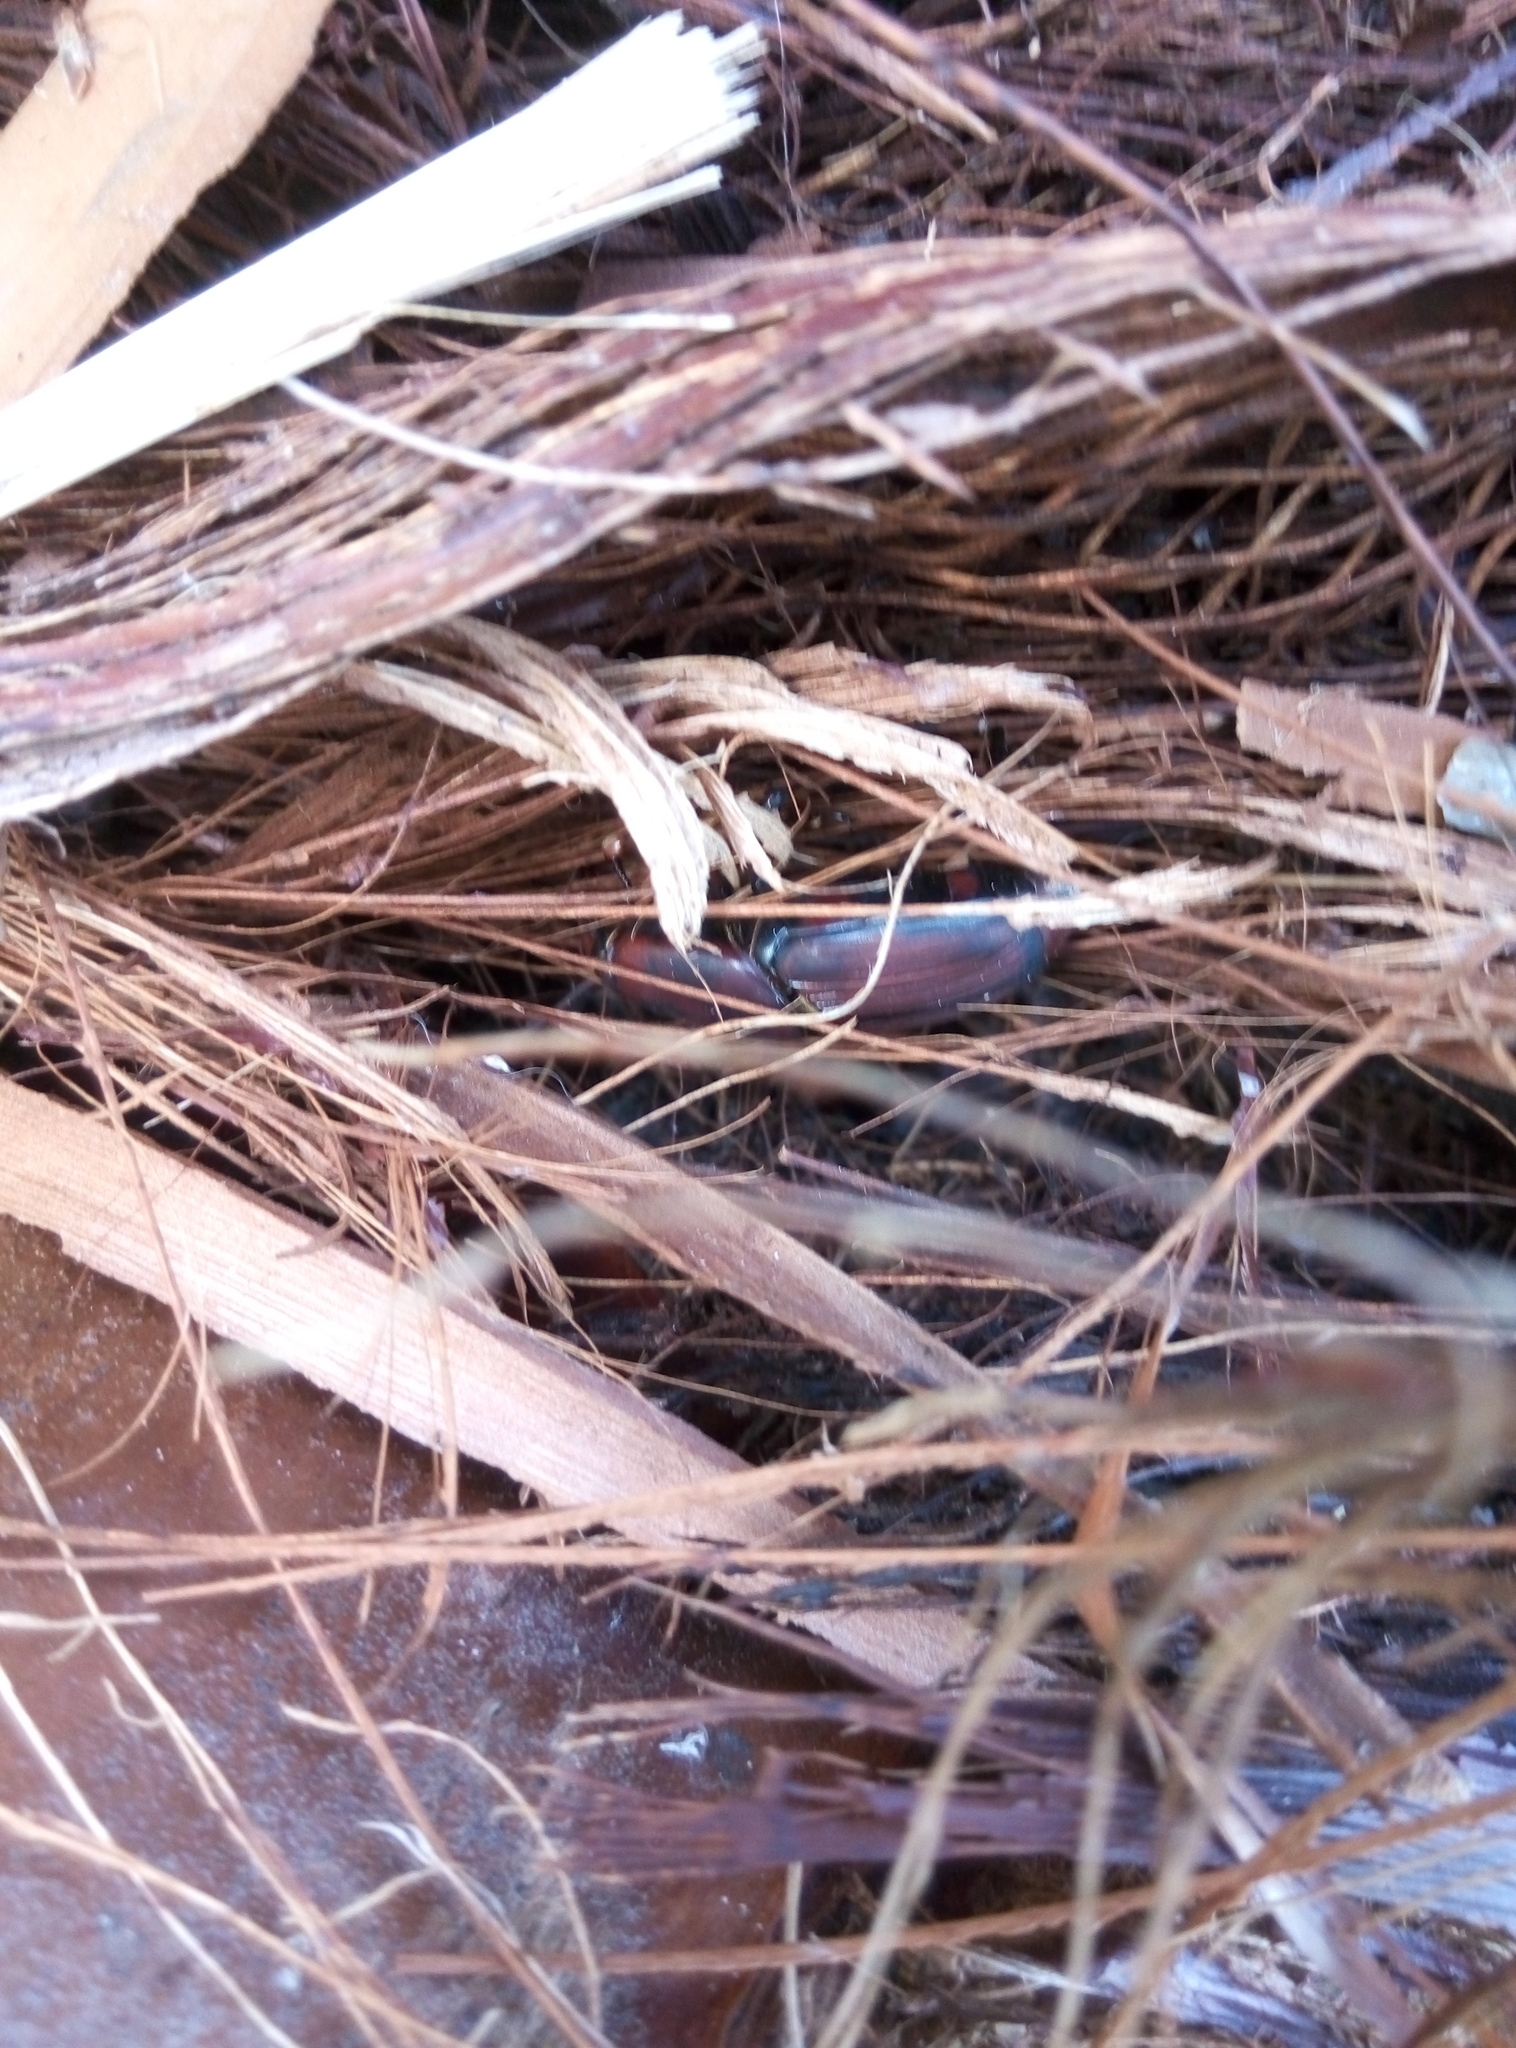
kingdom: Animalia
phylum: Arthropoda
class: Insecta
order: Coleoptera
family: Dryophthoridae
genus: Rhynchophorus
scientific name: Rhynchophorus ferrugineus
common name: Red palm weevil
